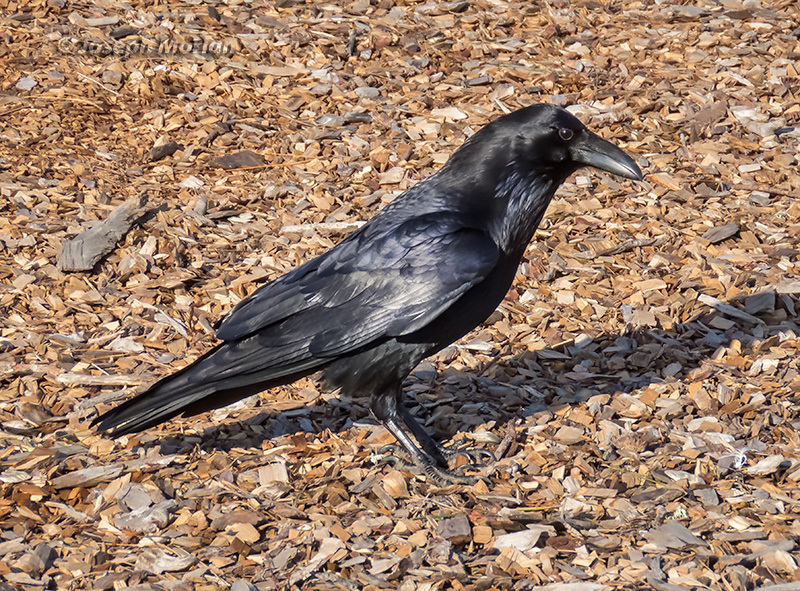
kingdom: Animalia
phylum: Chordata
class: Aves
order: Passeriformes
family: Corvidae
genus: Corvus
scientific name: Corvus corax
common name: Common raven
